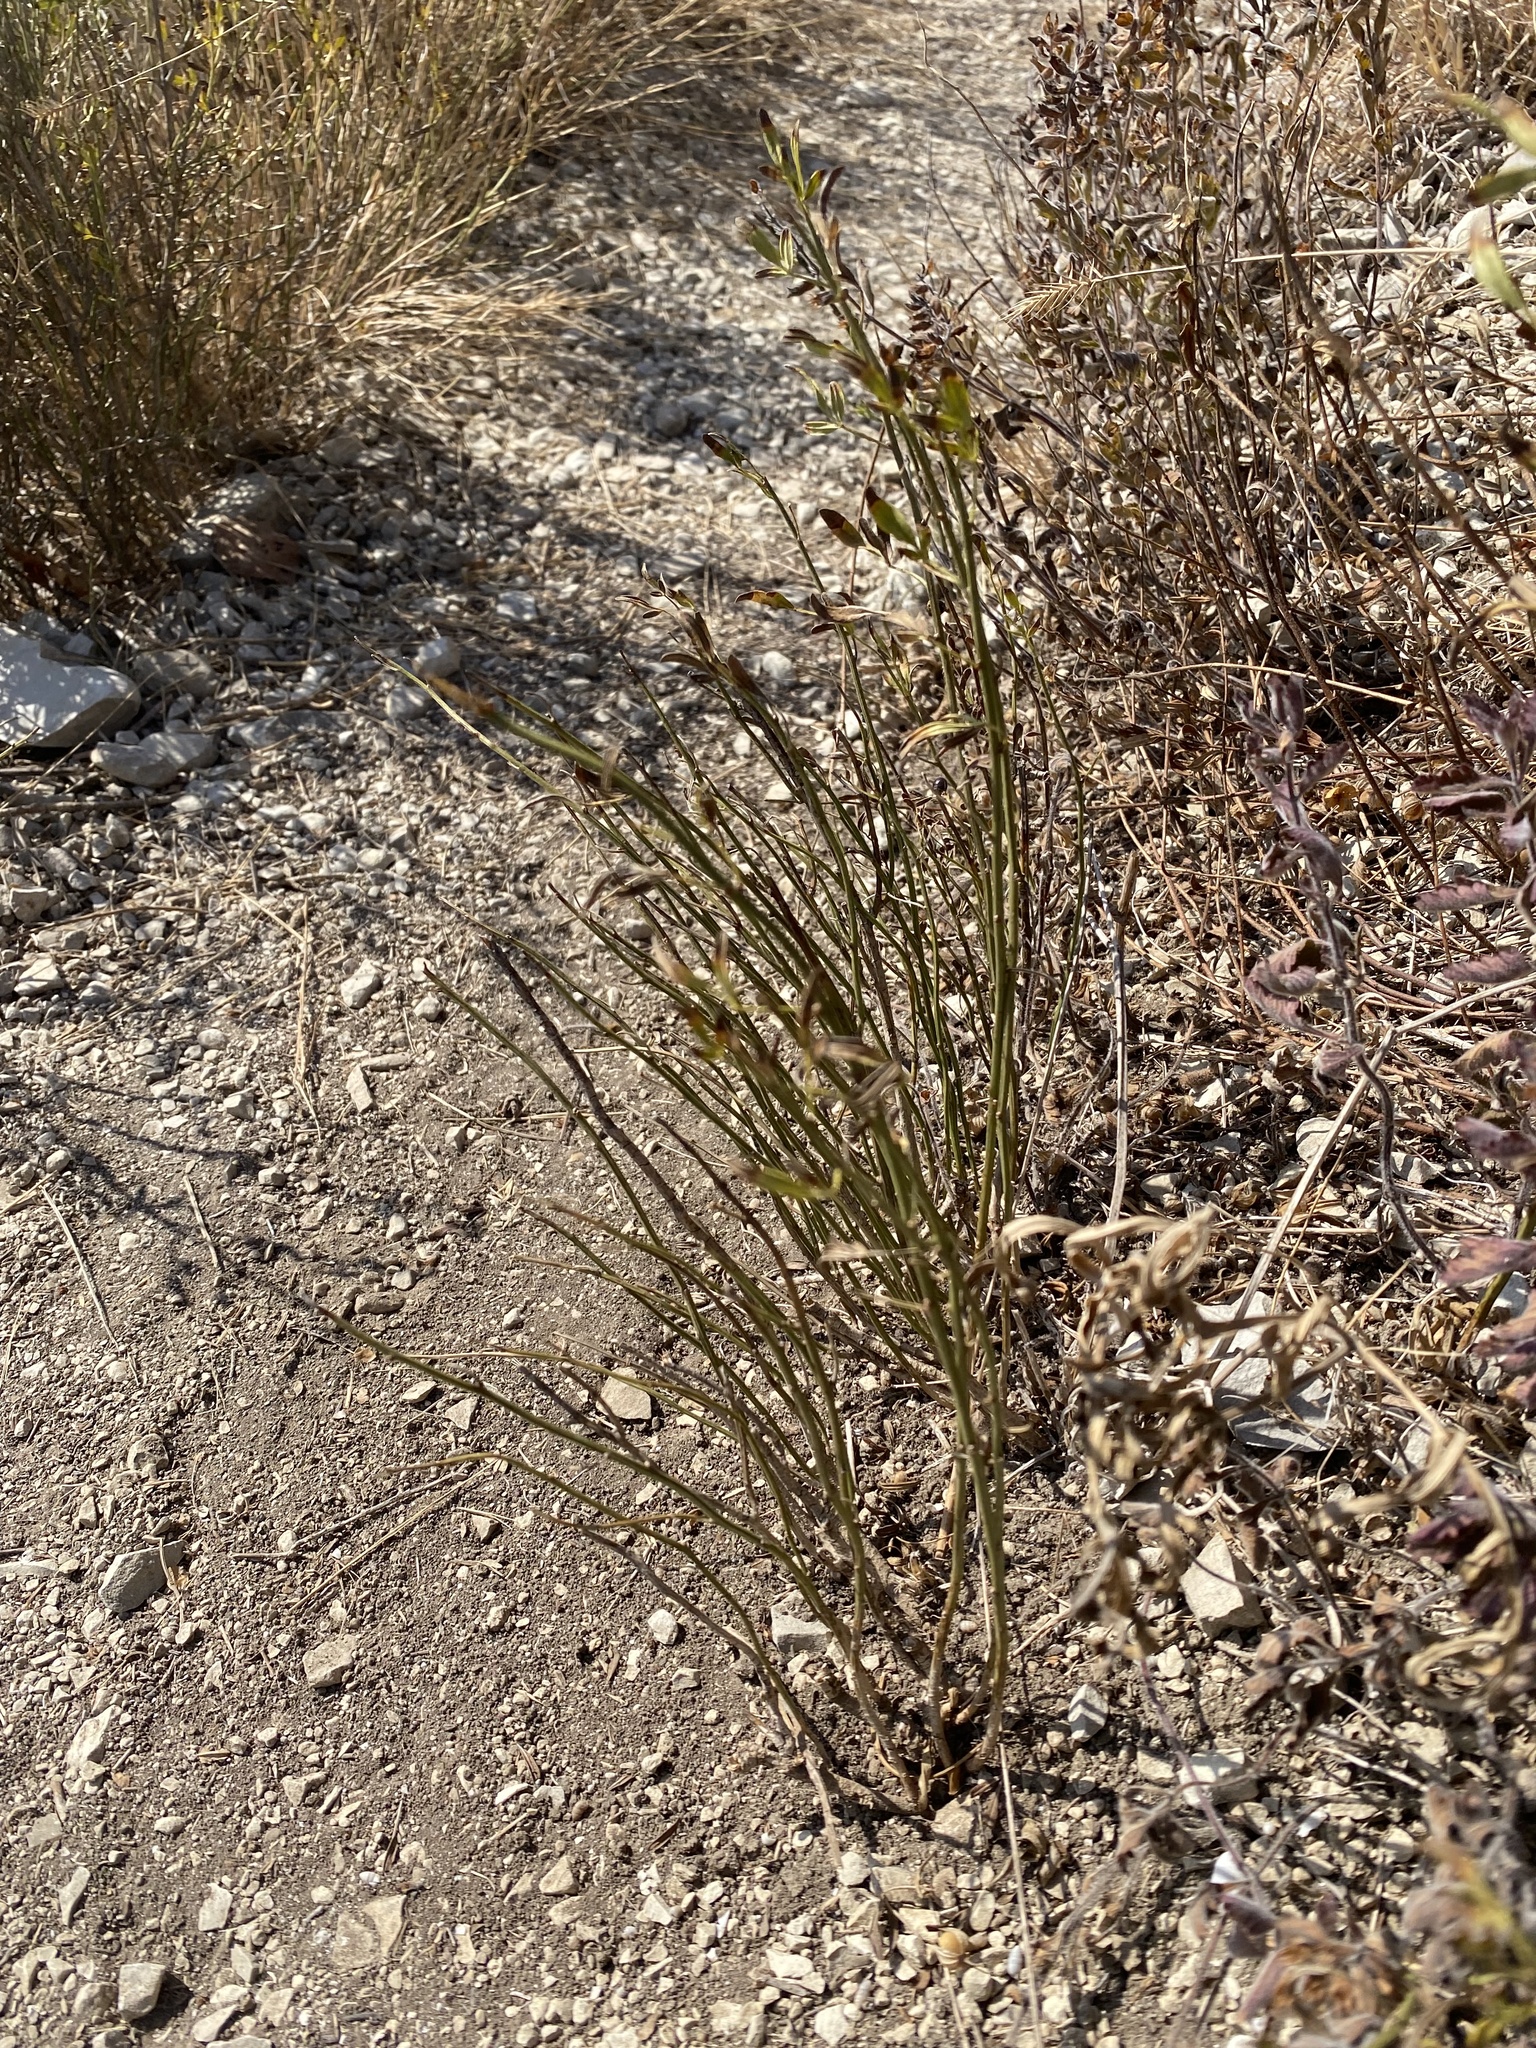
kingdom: Plantae
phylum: Tracheophyta
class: Magnoliopsida
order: Lamiales
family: Oleaceae
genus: Chrysojasminum
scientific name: Chrysojasminum fruticans
